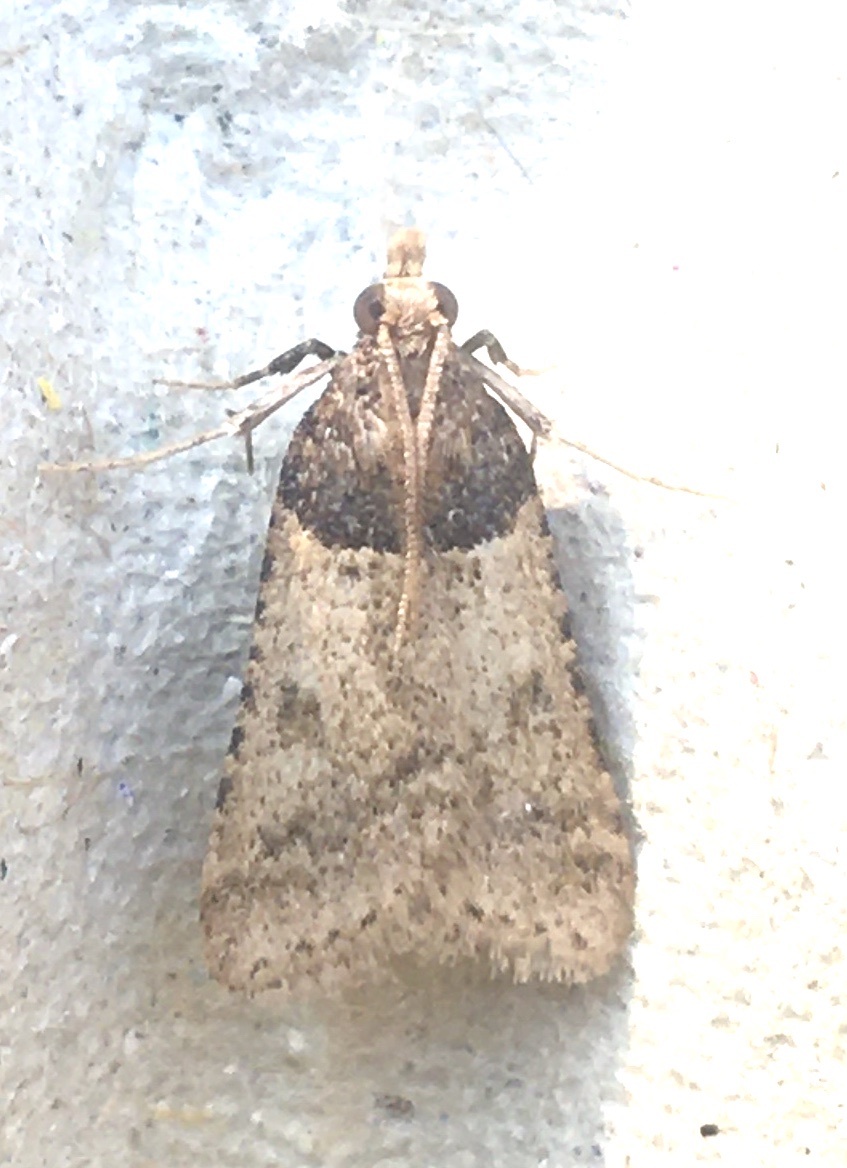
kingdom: Animalia
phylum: Arthropoda
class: Insecta
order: Lepidoptera
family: Pyralidae
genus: Philotis
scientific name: Philotis basalis
